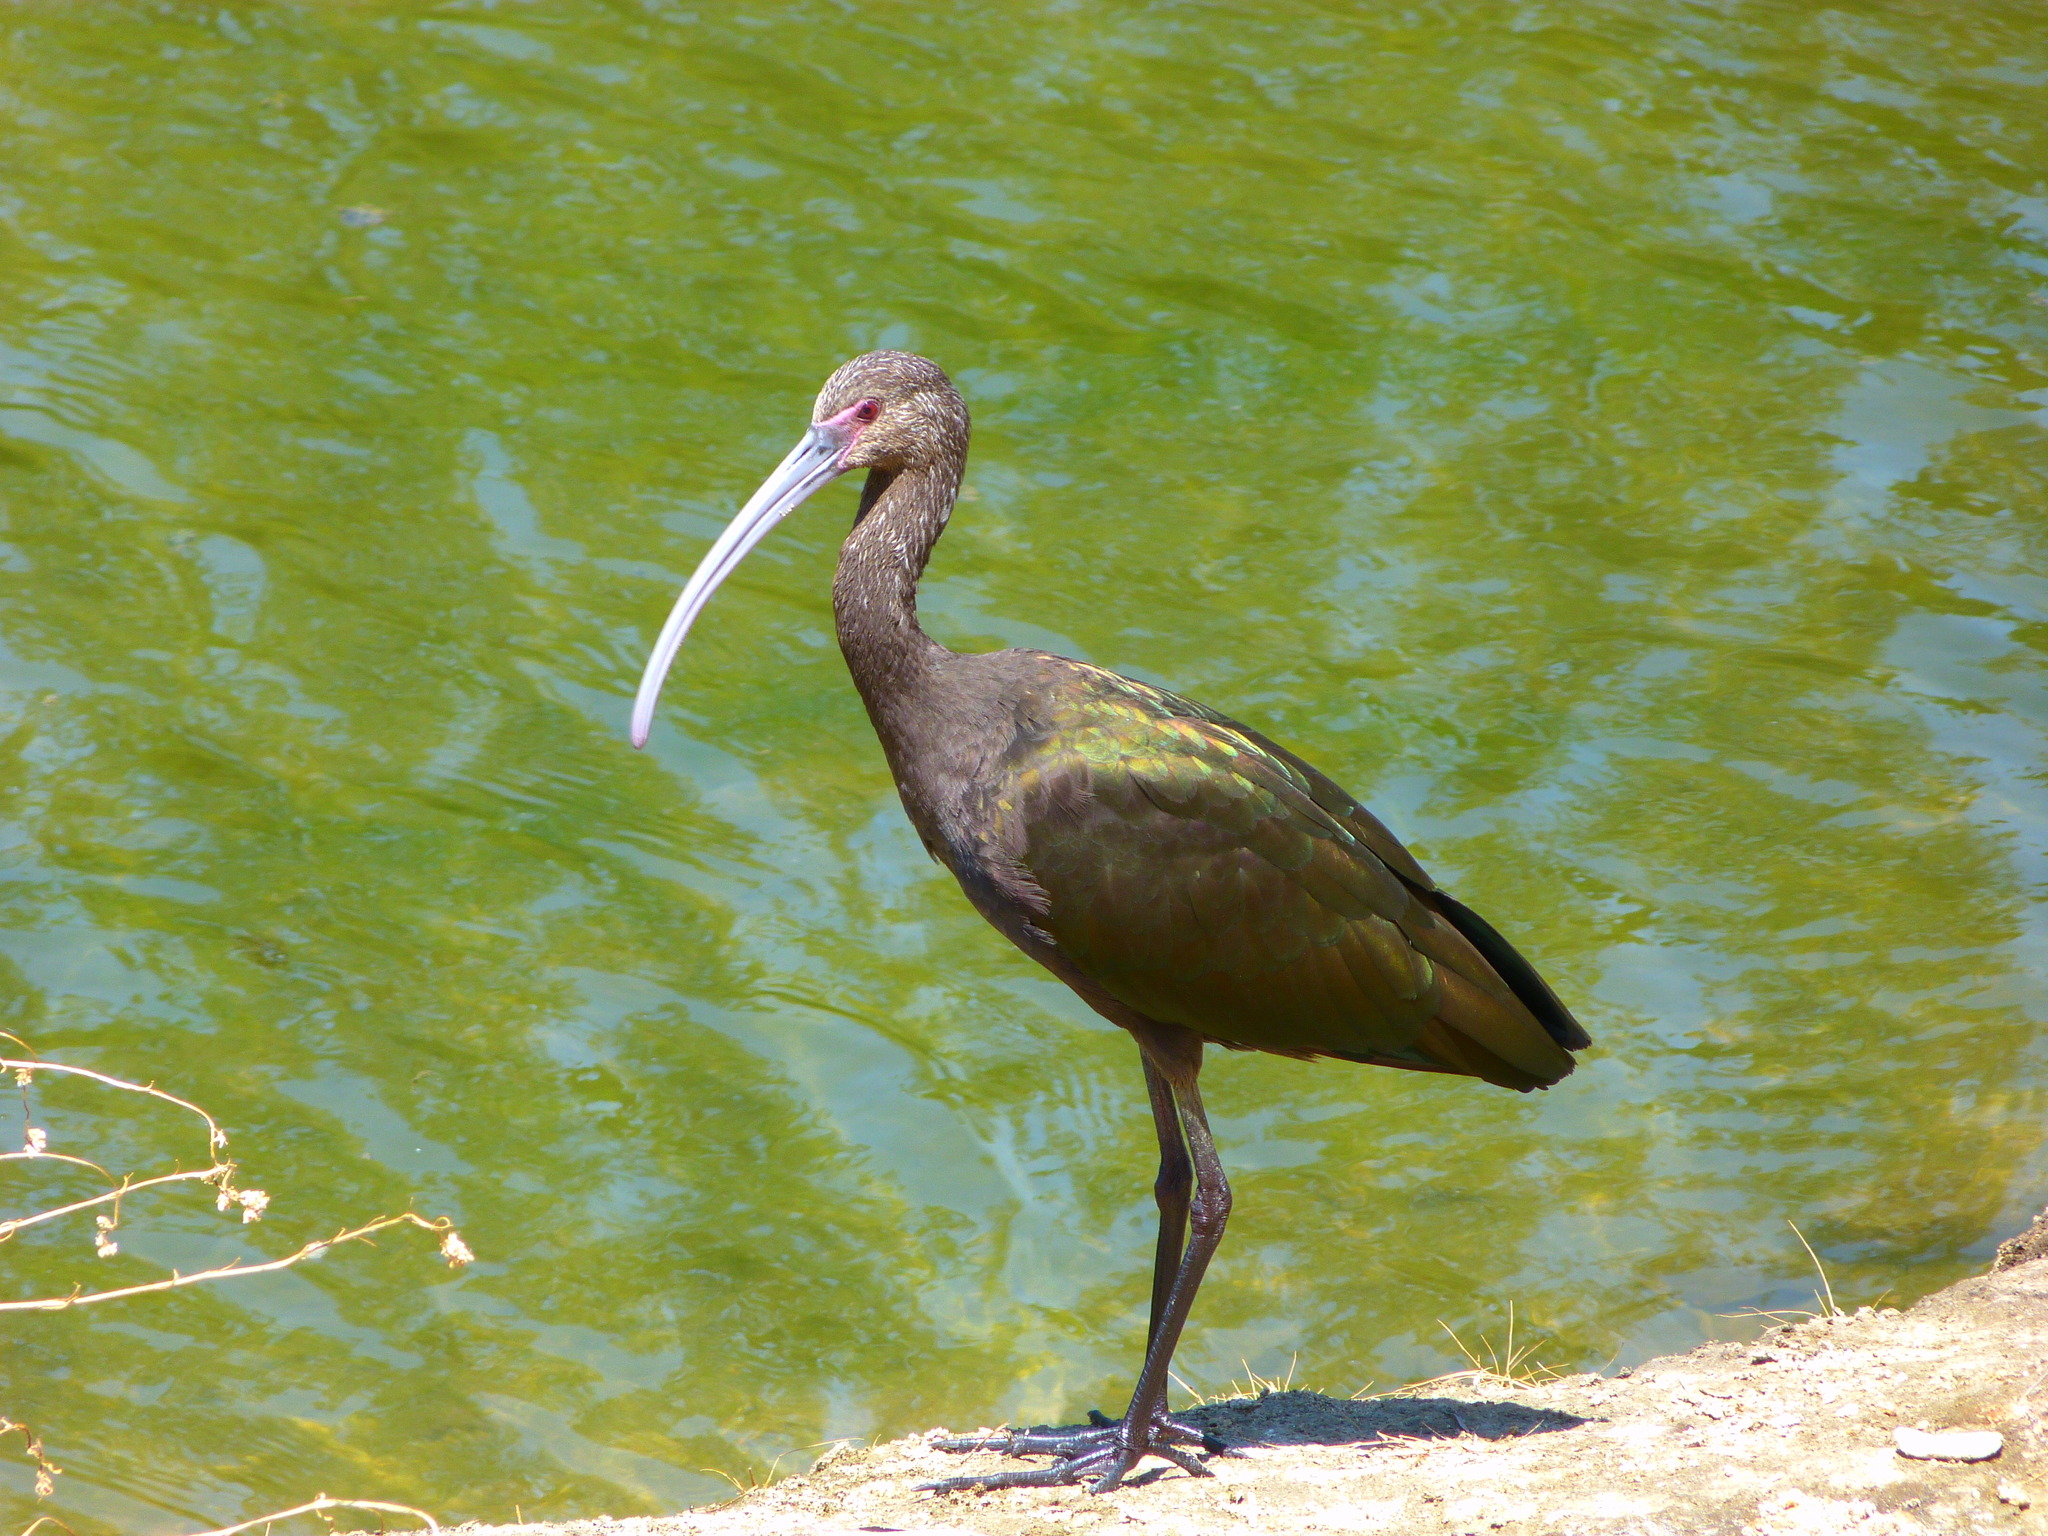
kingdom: Animalia
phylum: Chordata
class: Aves
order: Pelecaniformes
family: Threskiornithidae
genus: Plegadis
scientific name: Plegadis chihi
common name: White-faced ibis
